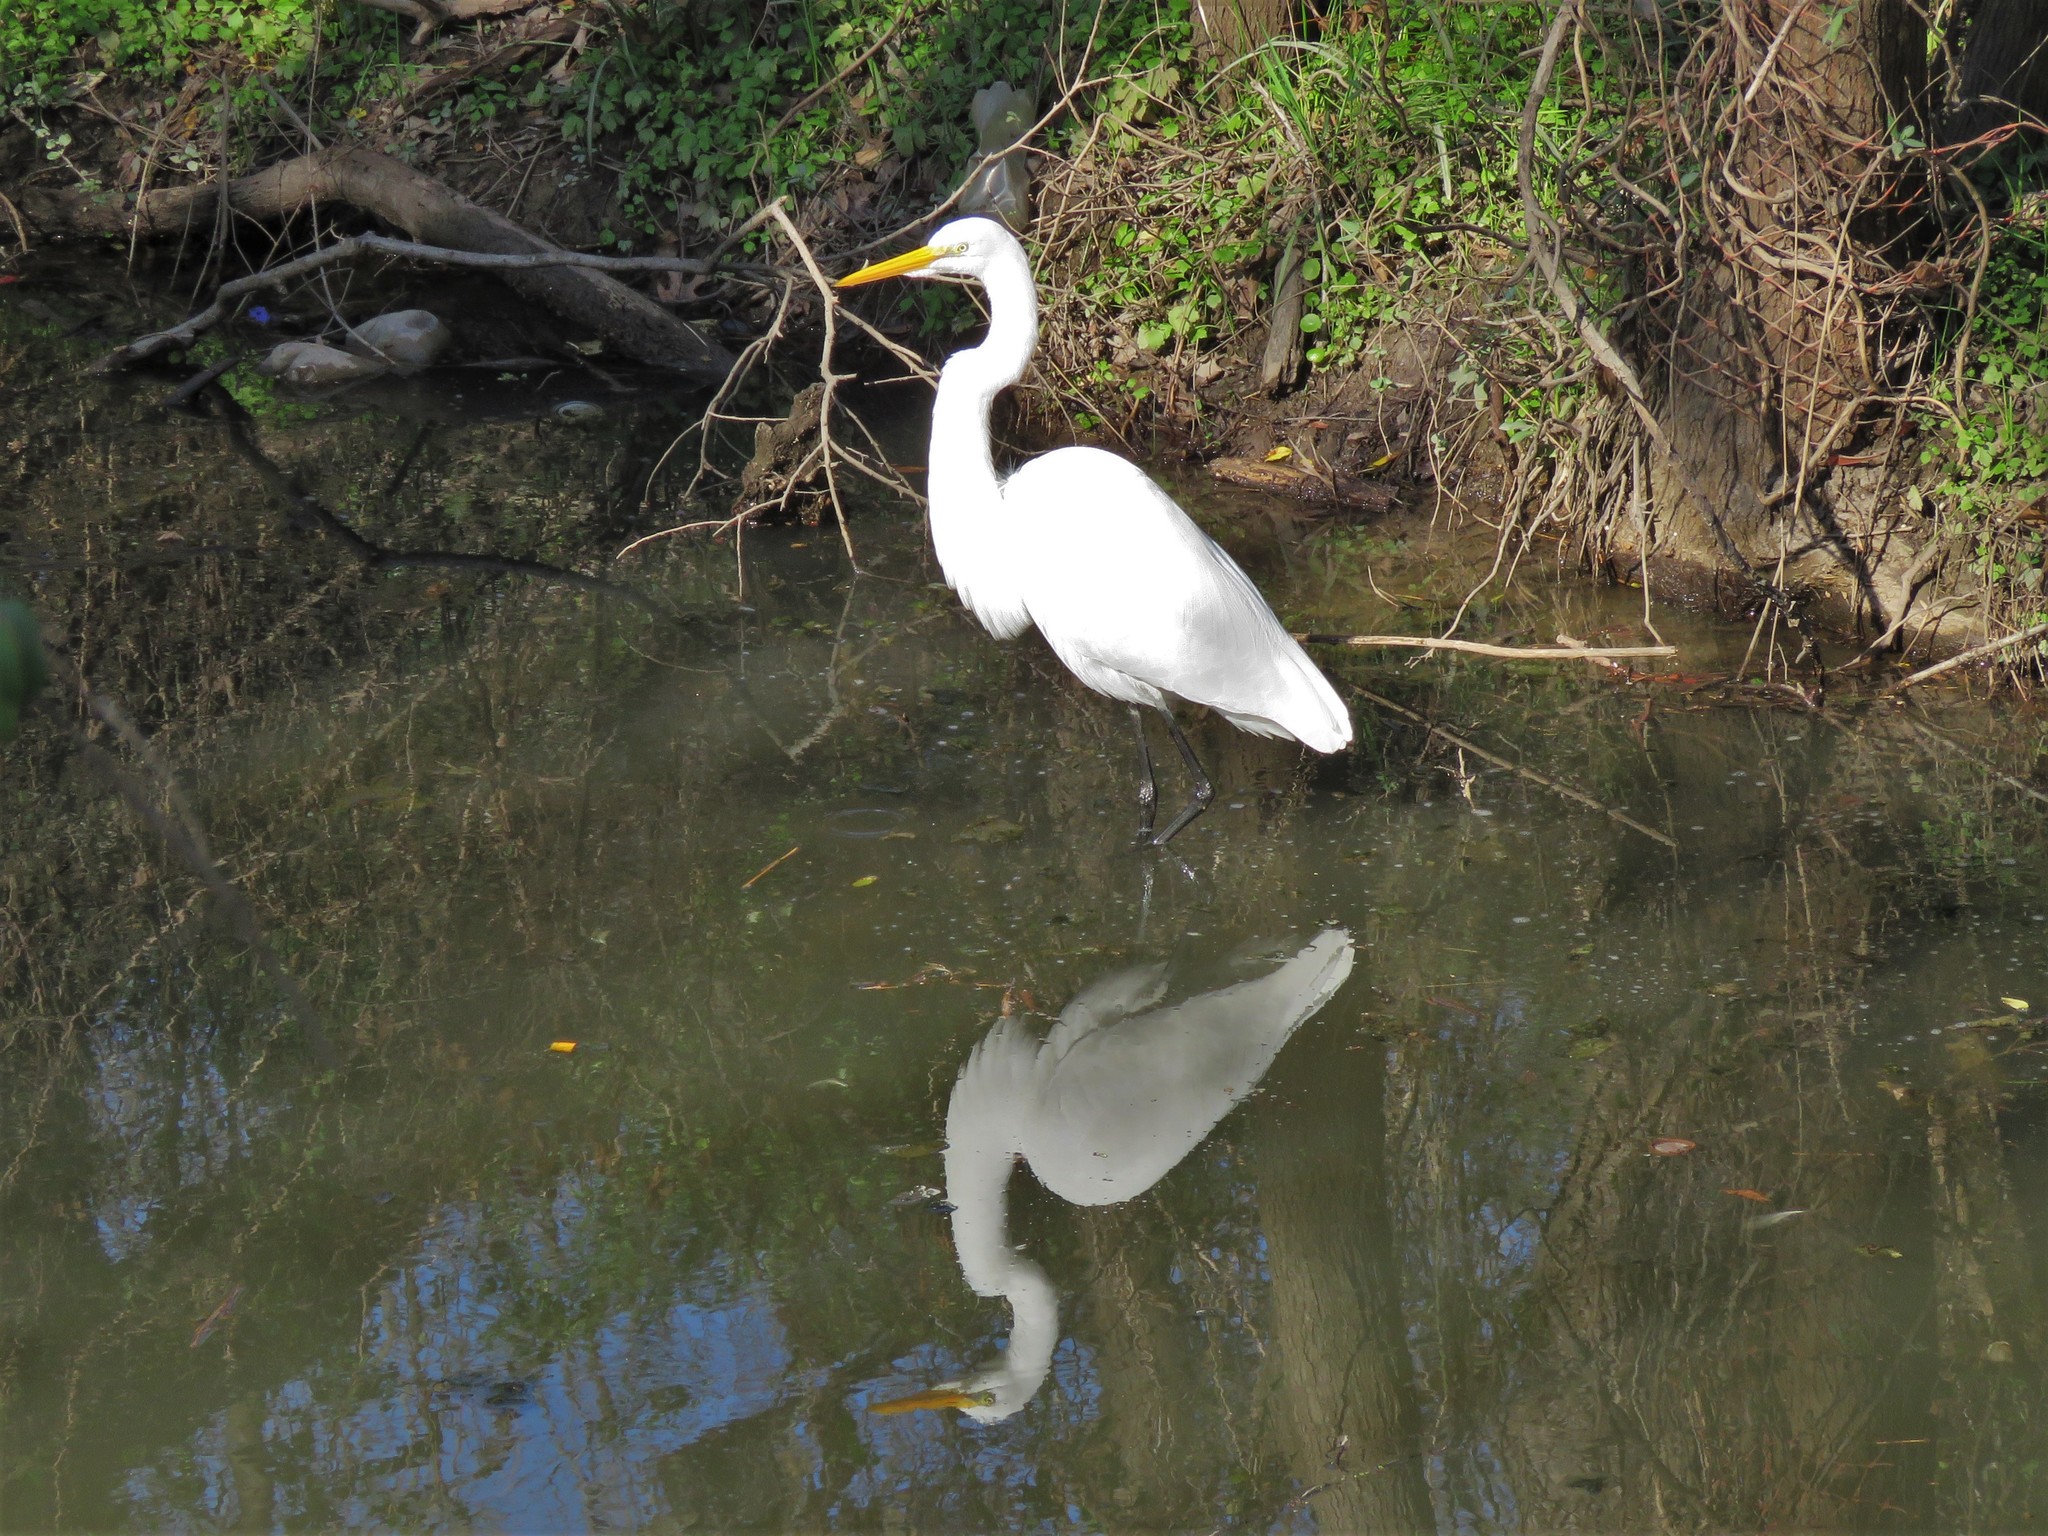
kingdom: Animalia
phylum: Chordata
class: Aves
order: Pelecaniformes
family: Ardeidae
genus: Ardea
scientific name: Ardea alba
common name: Great egret
